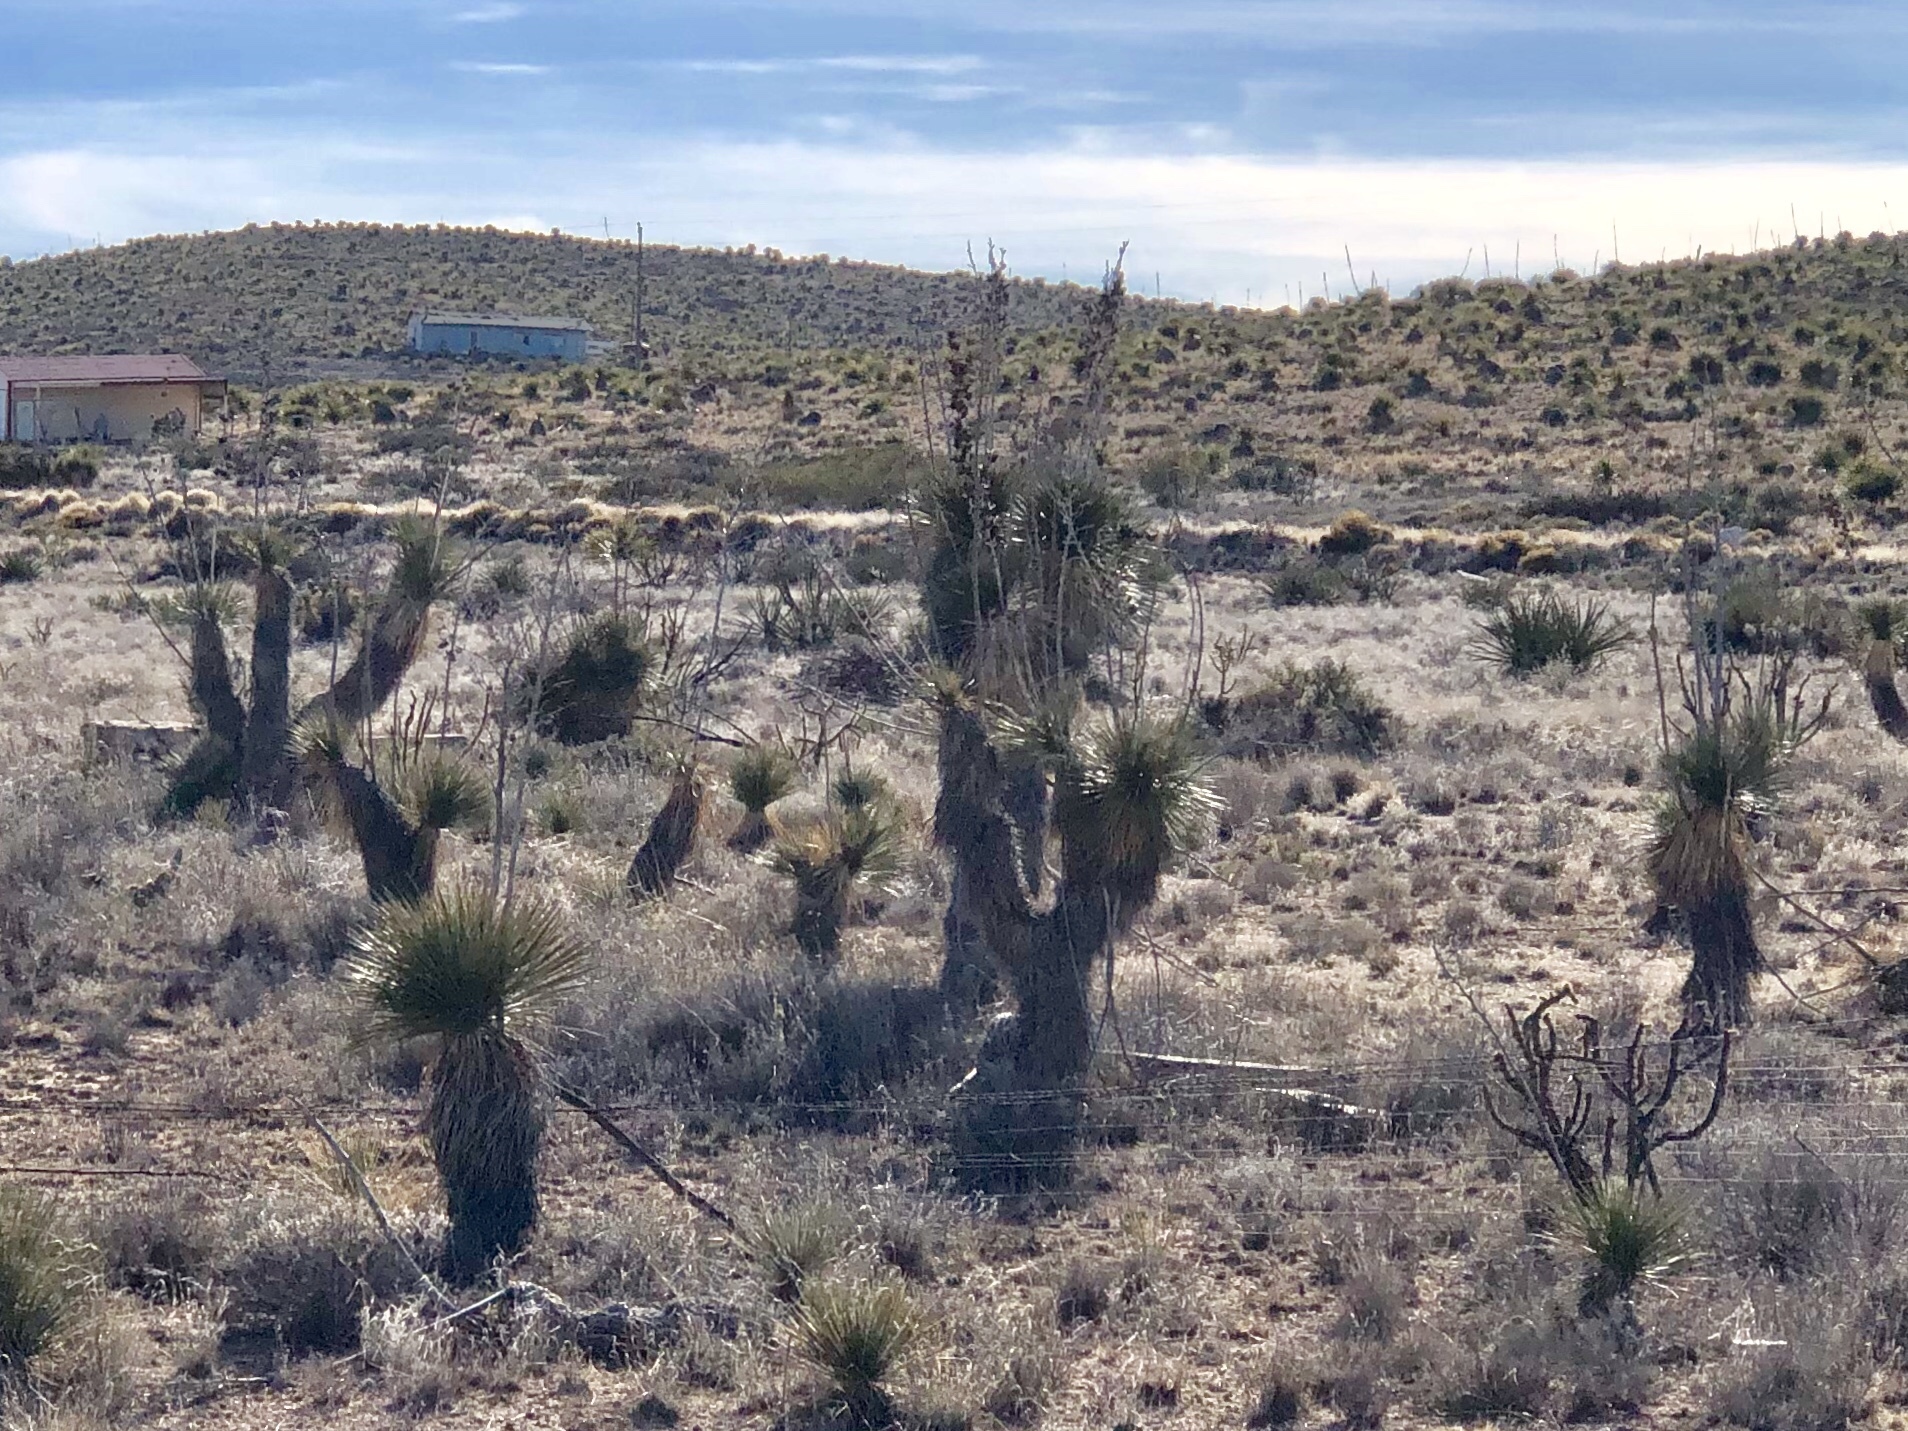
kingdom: Plantae
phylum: Tracheophyta
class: Liliopsida
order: Asparagales
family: Asparagaceae
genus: Yucca
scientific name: Yucca elata
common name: Palmella
